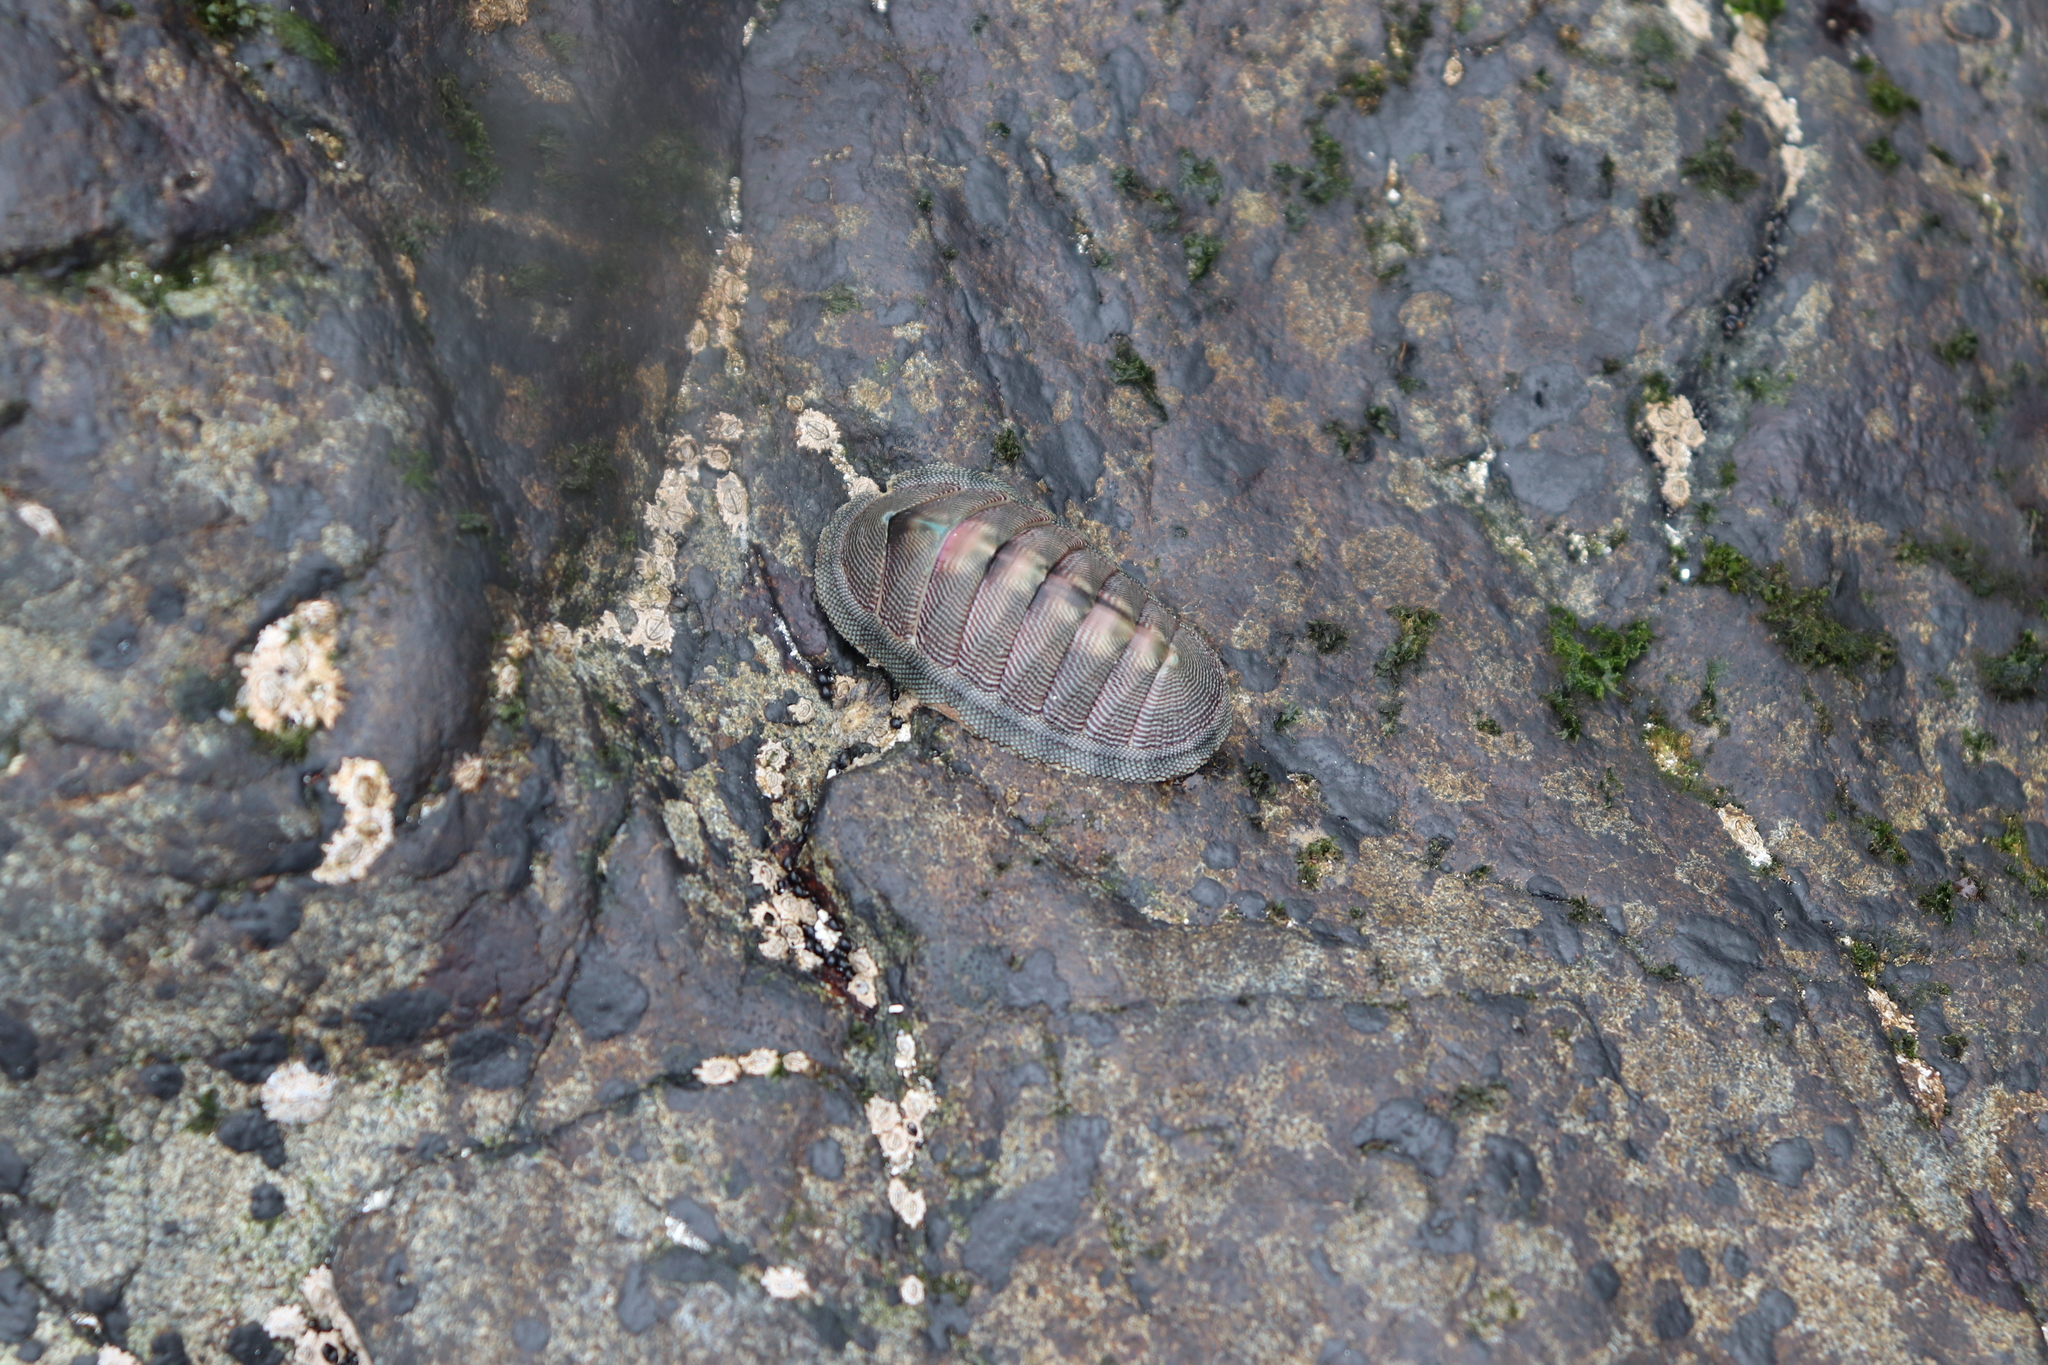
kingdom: Animalia
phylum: Mollusca
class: Polyplacophora
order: Chitonida
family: Chitonidae
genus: Chiton
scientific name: Chiton cumingsii
